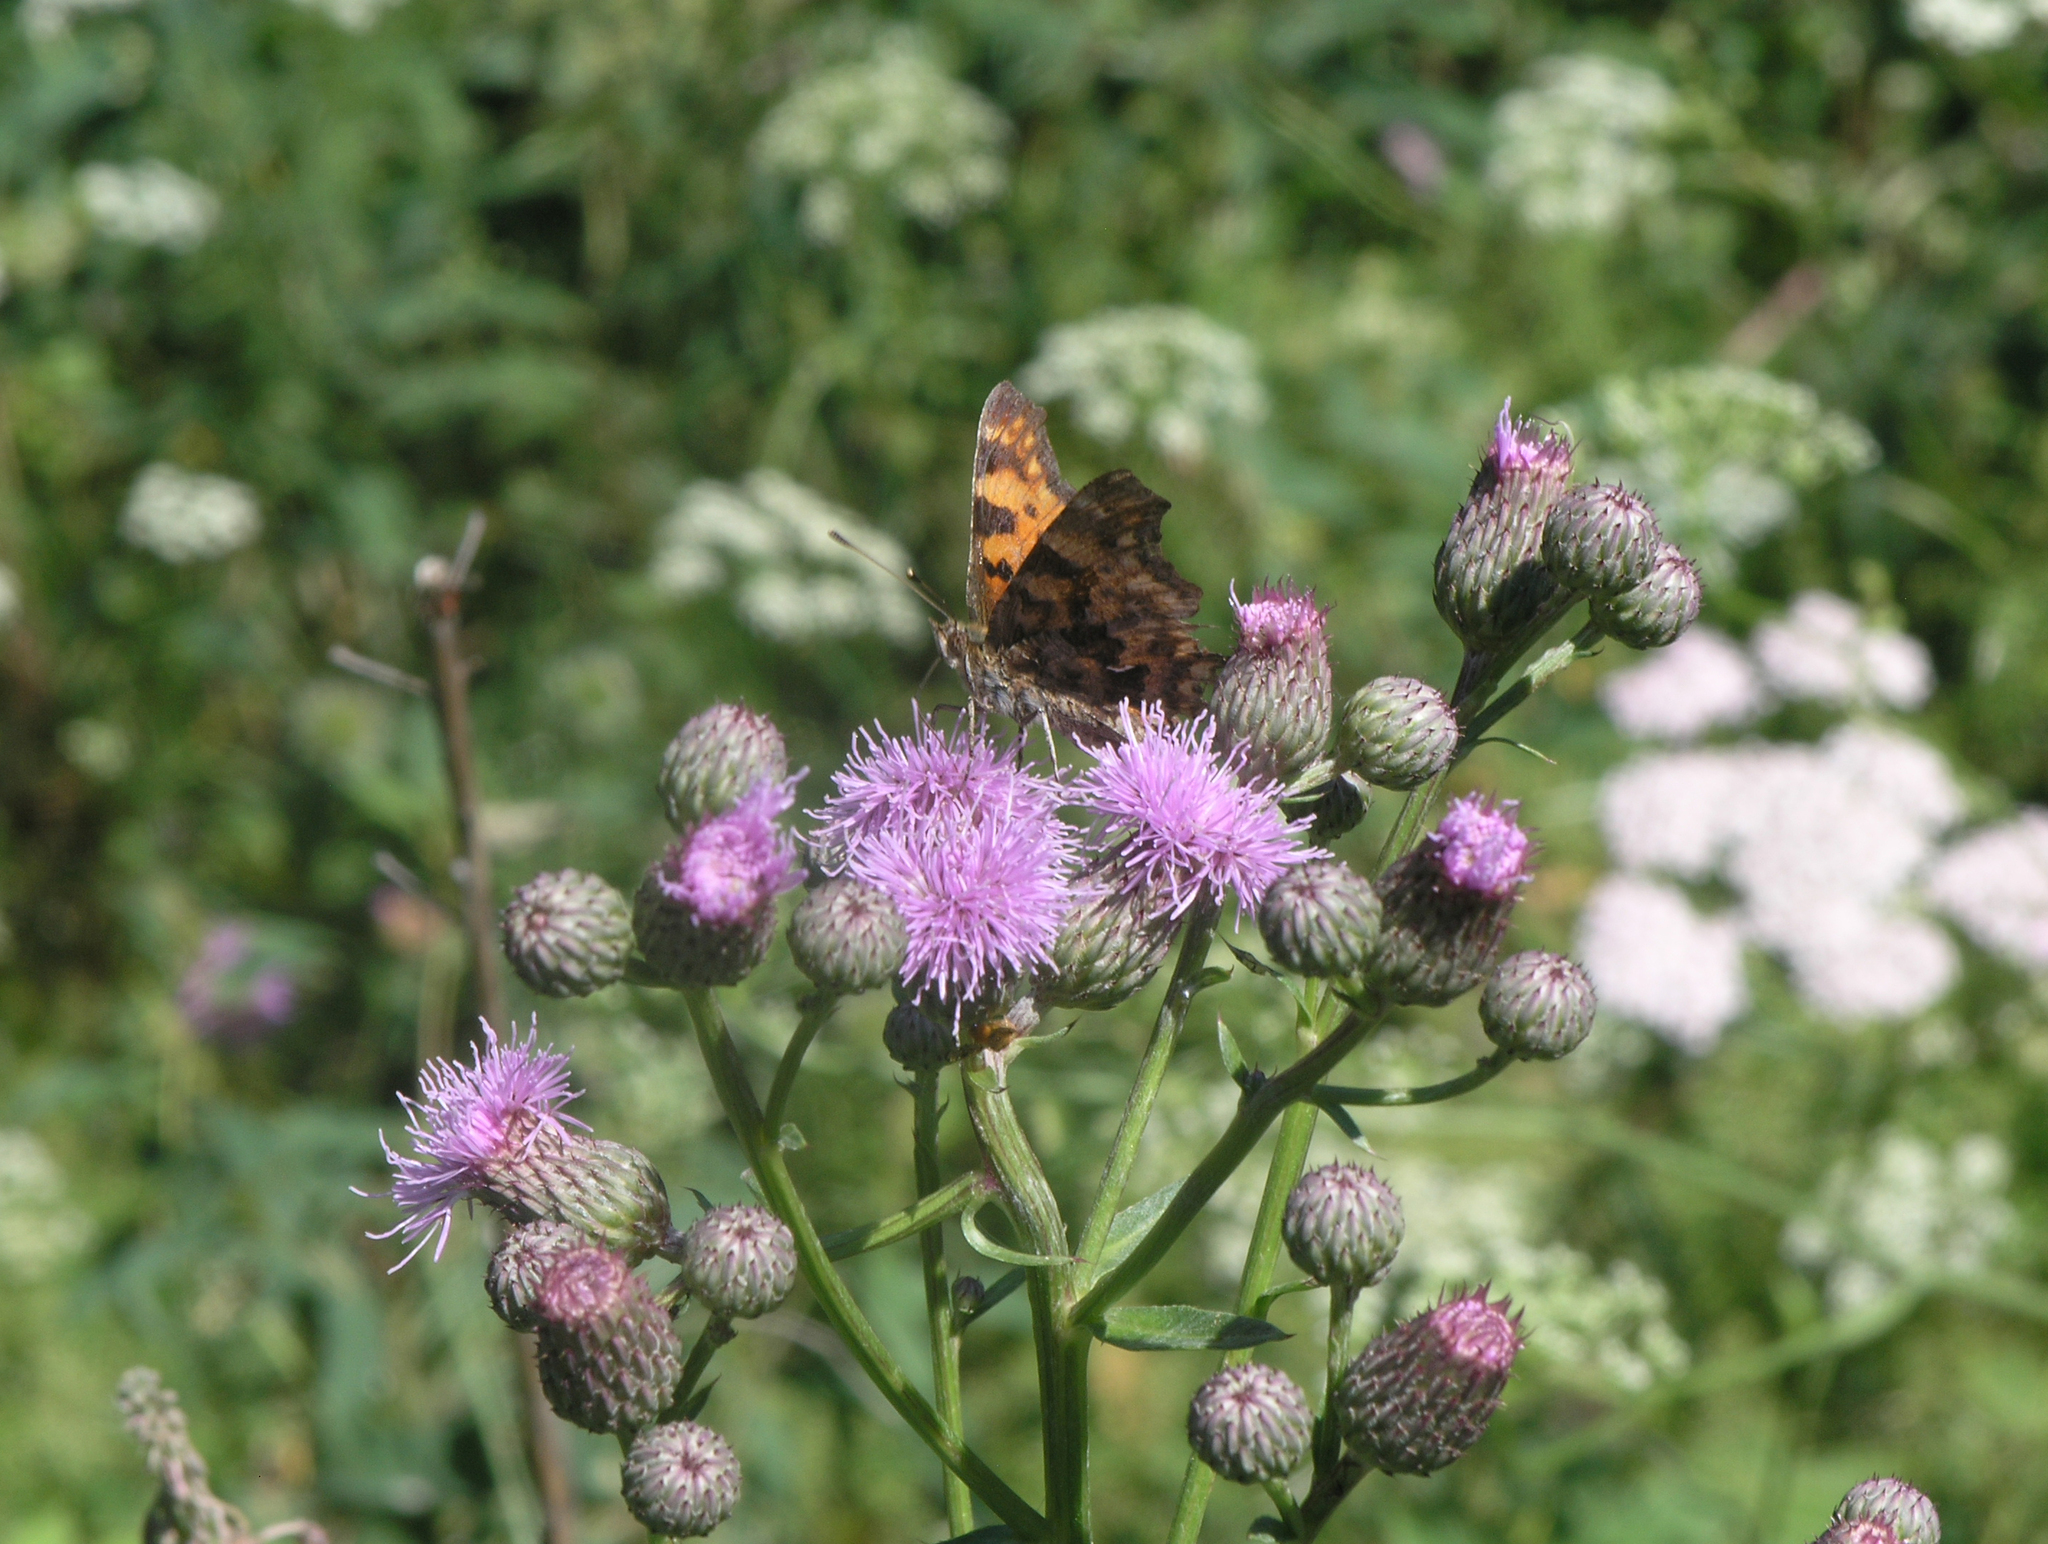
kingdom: Animalia
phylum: Arthropoda
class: Insecta
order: Lepidoptera
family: Nymphalidae
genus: Polygonia
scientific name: Polygonia c-album
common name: Comma
